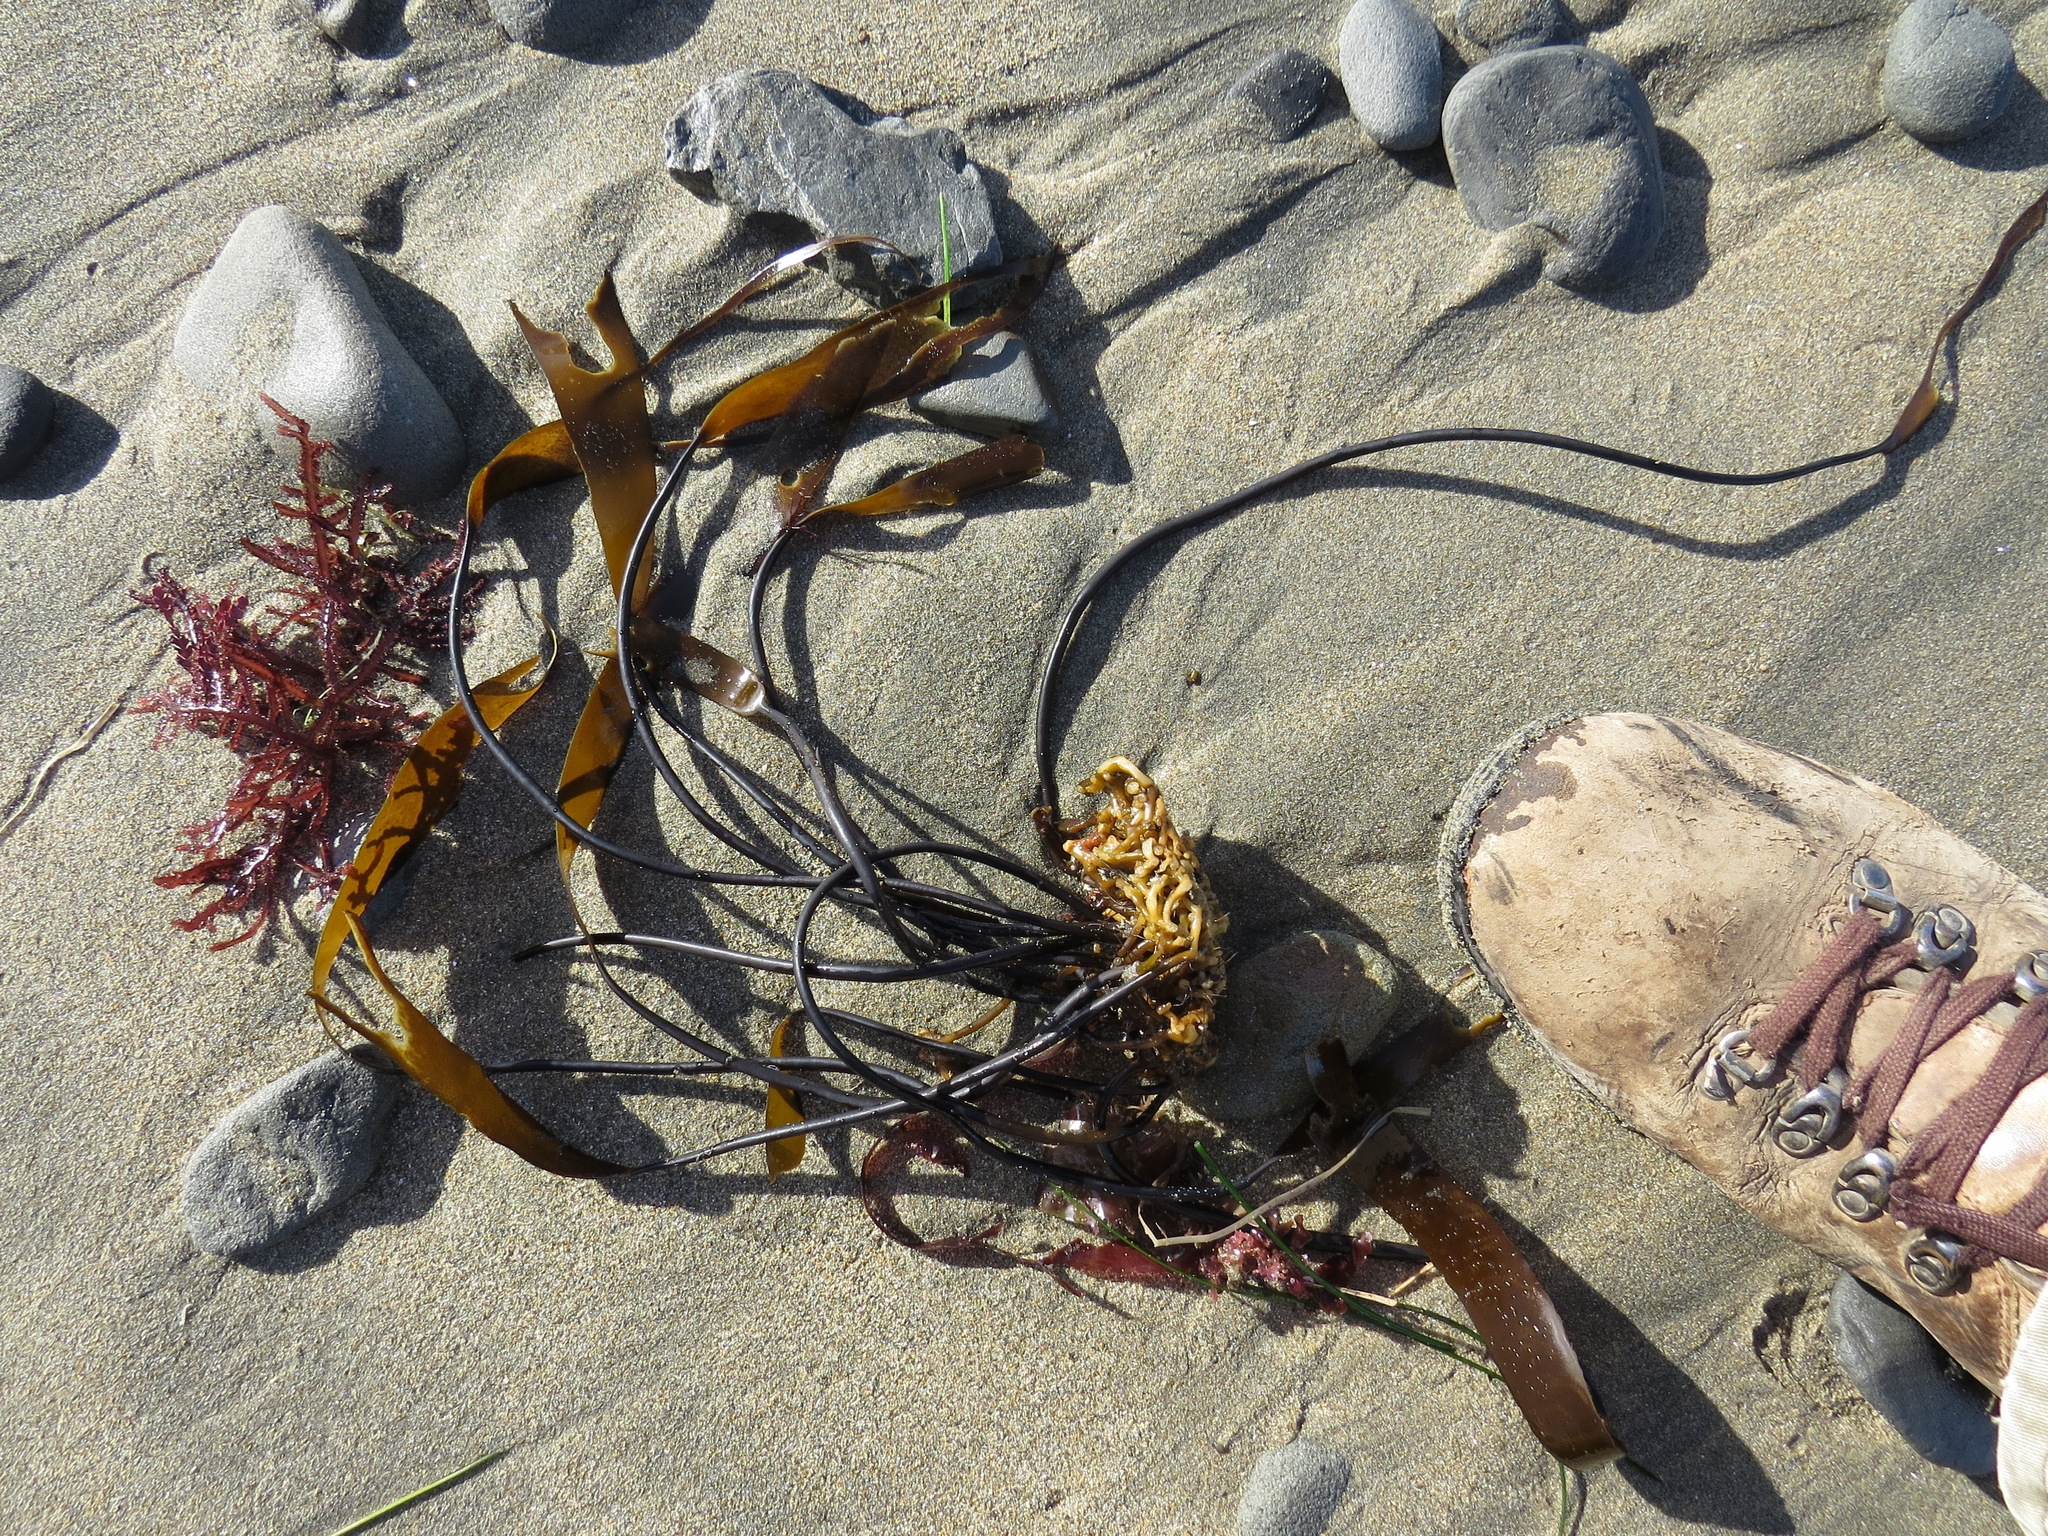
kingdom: Chromista
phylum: Ochrophyta
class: Phaeophyceae
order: Laminariales
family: Laminariaceae
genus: Laminaria
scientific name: Laminaria sinclairii
